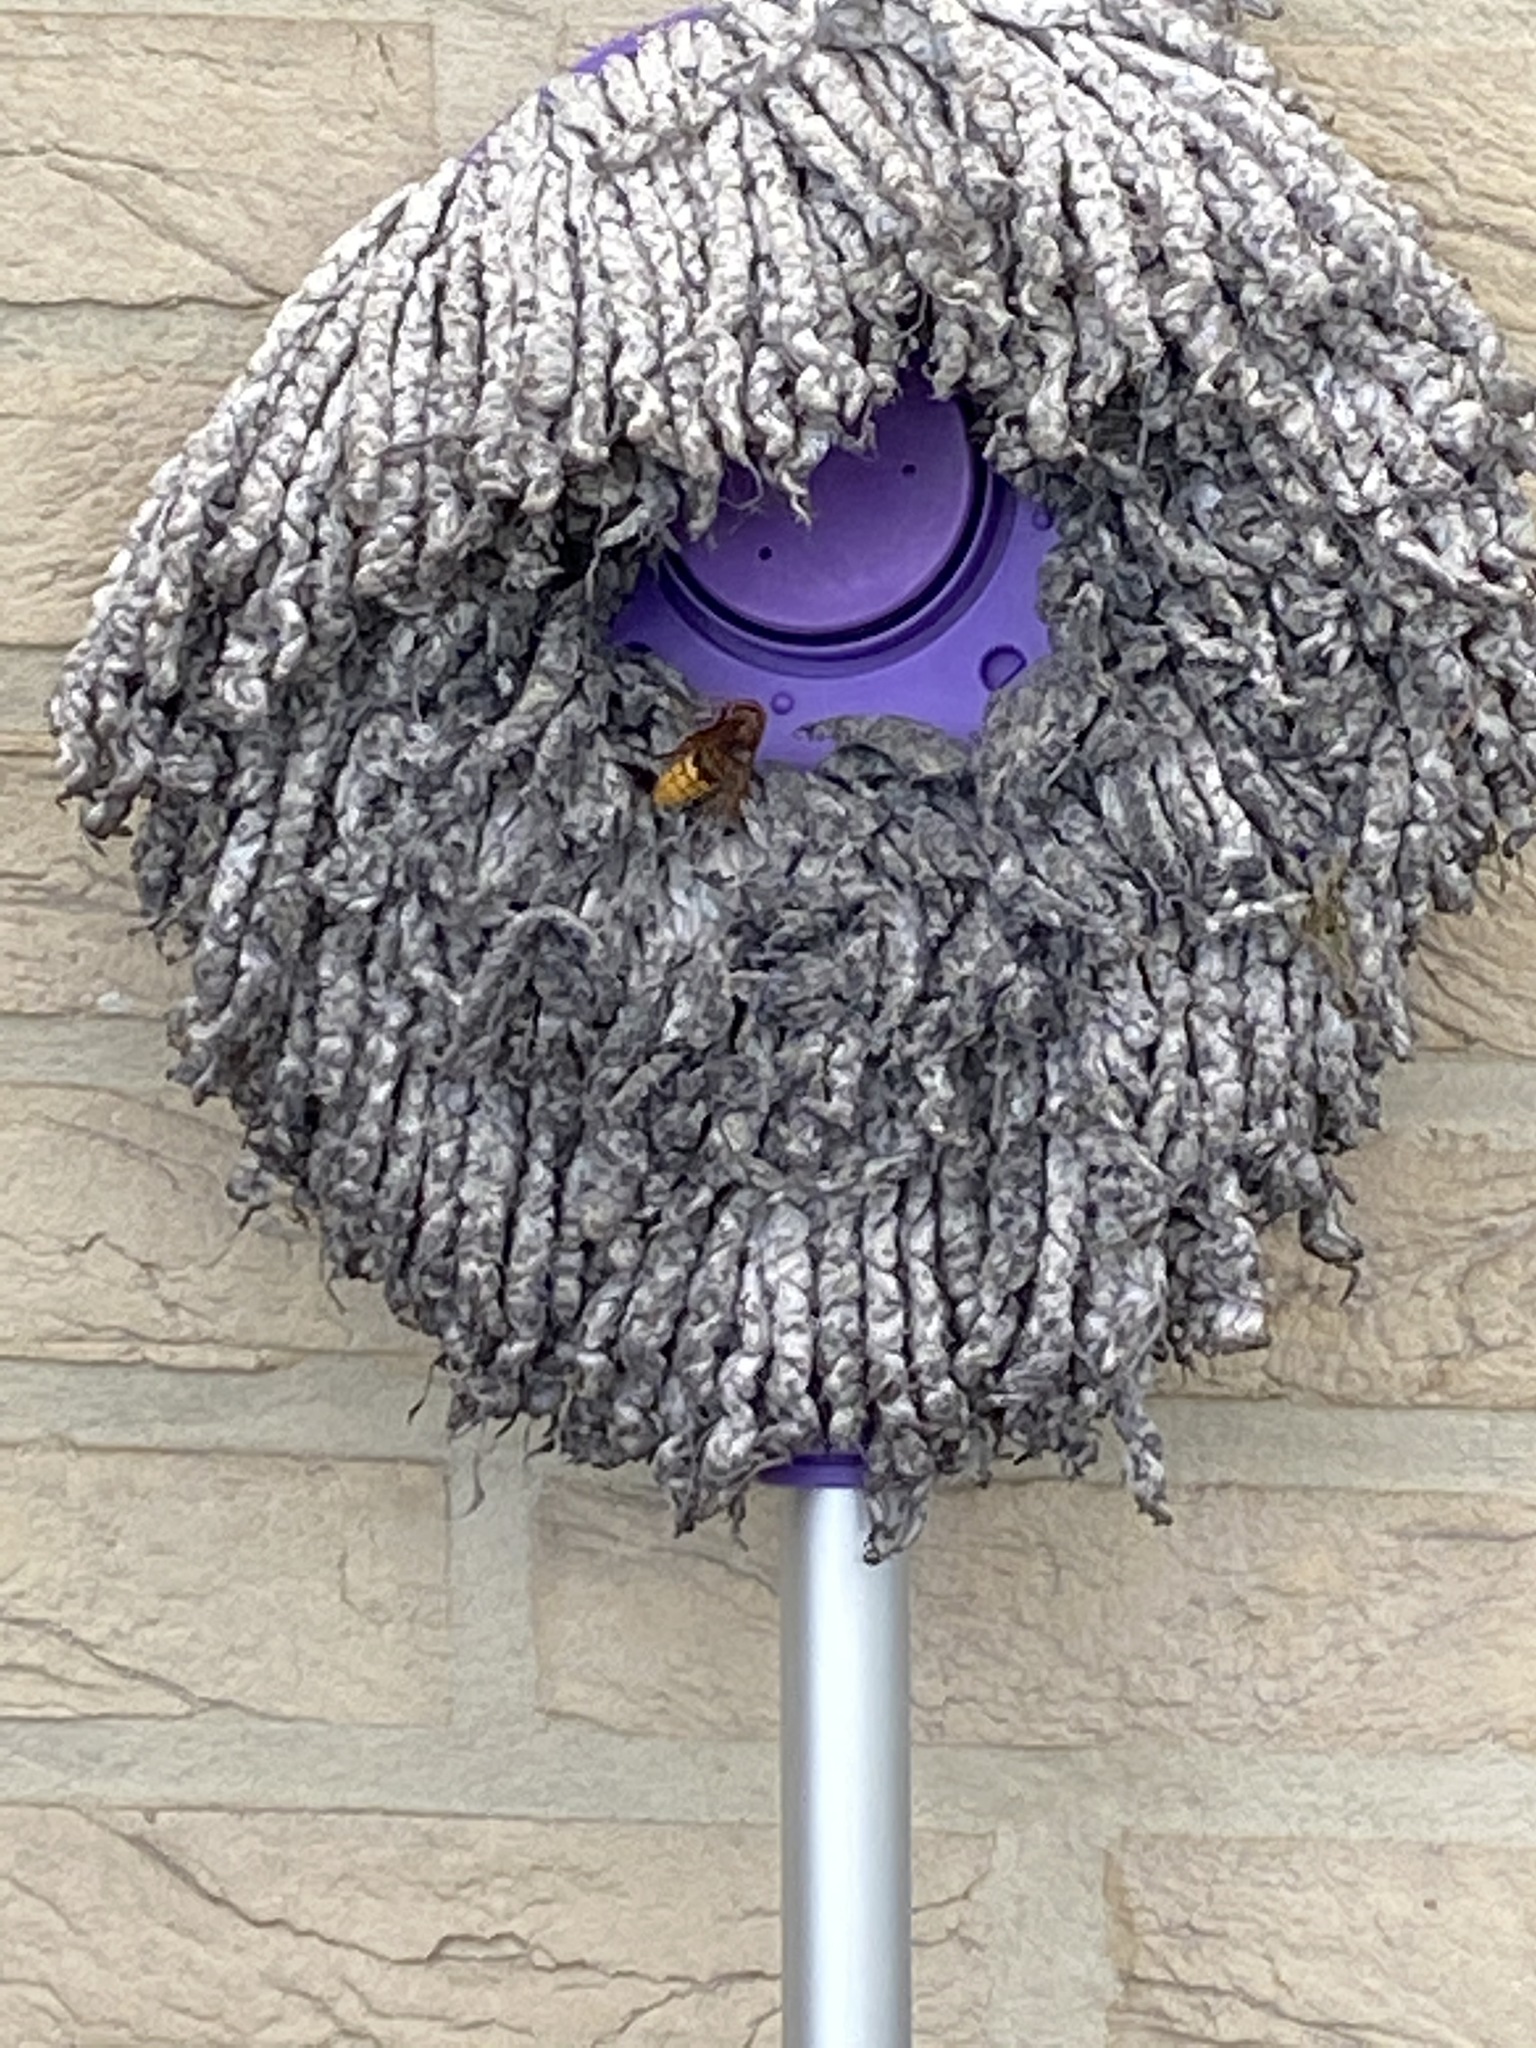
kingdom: Animalia
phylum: Arthropoda
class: Insecta
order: Hymenoptera
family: Vespidae
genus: Vespa
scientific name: Vespa crabro
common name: Hornet
